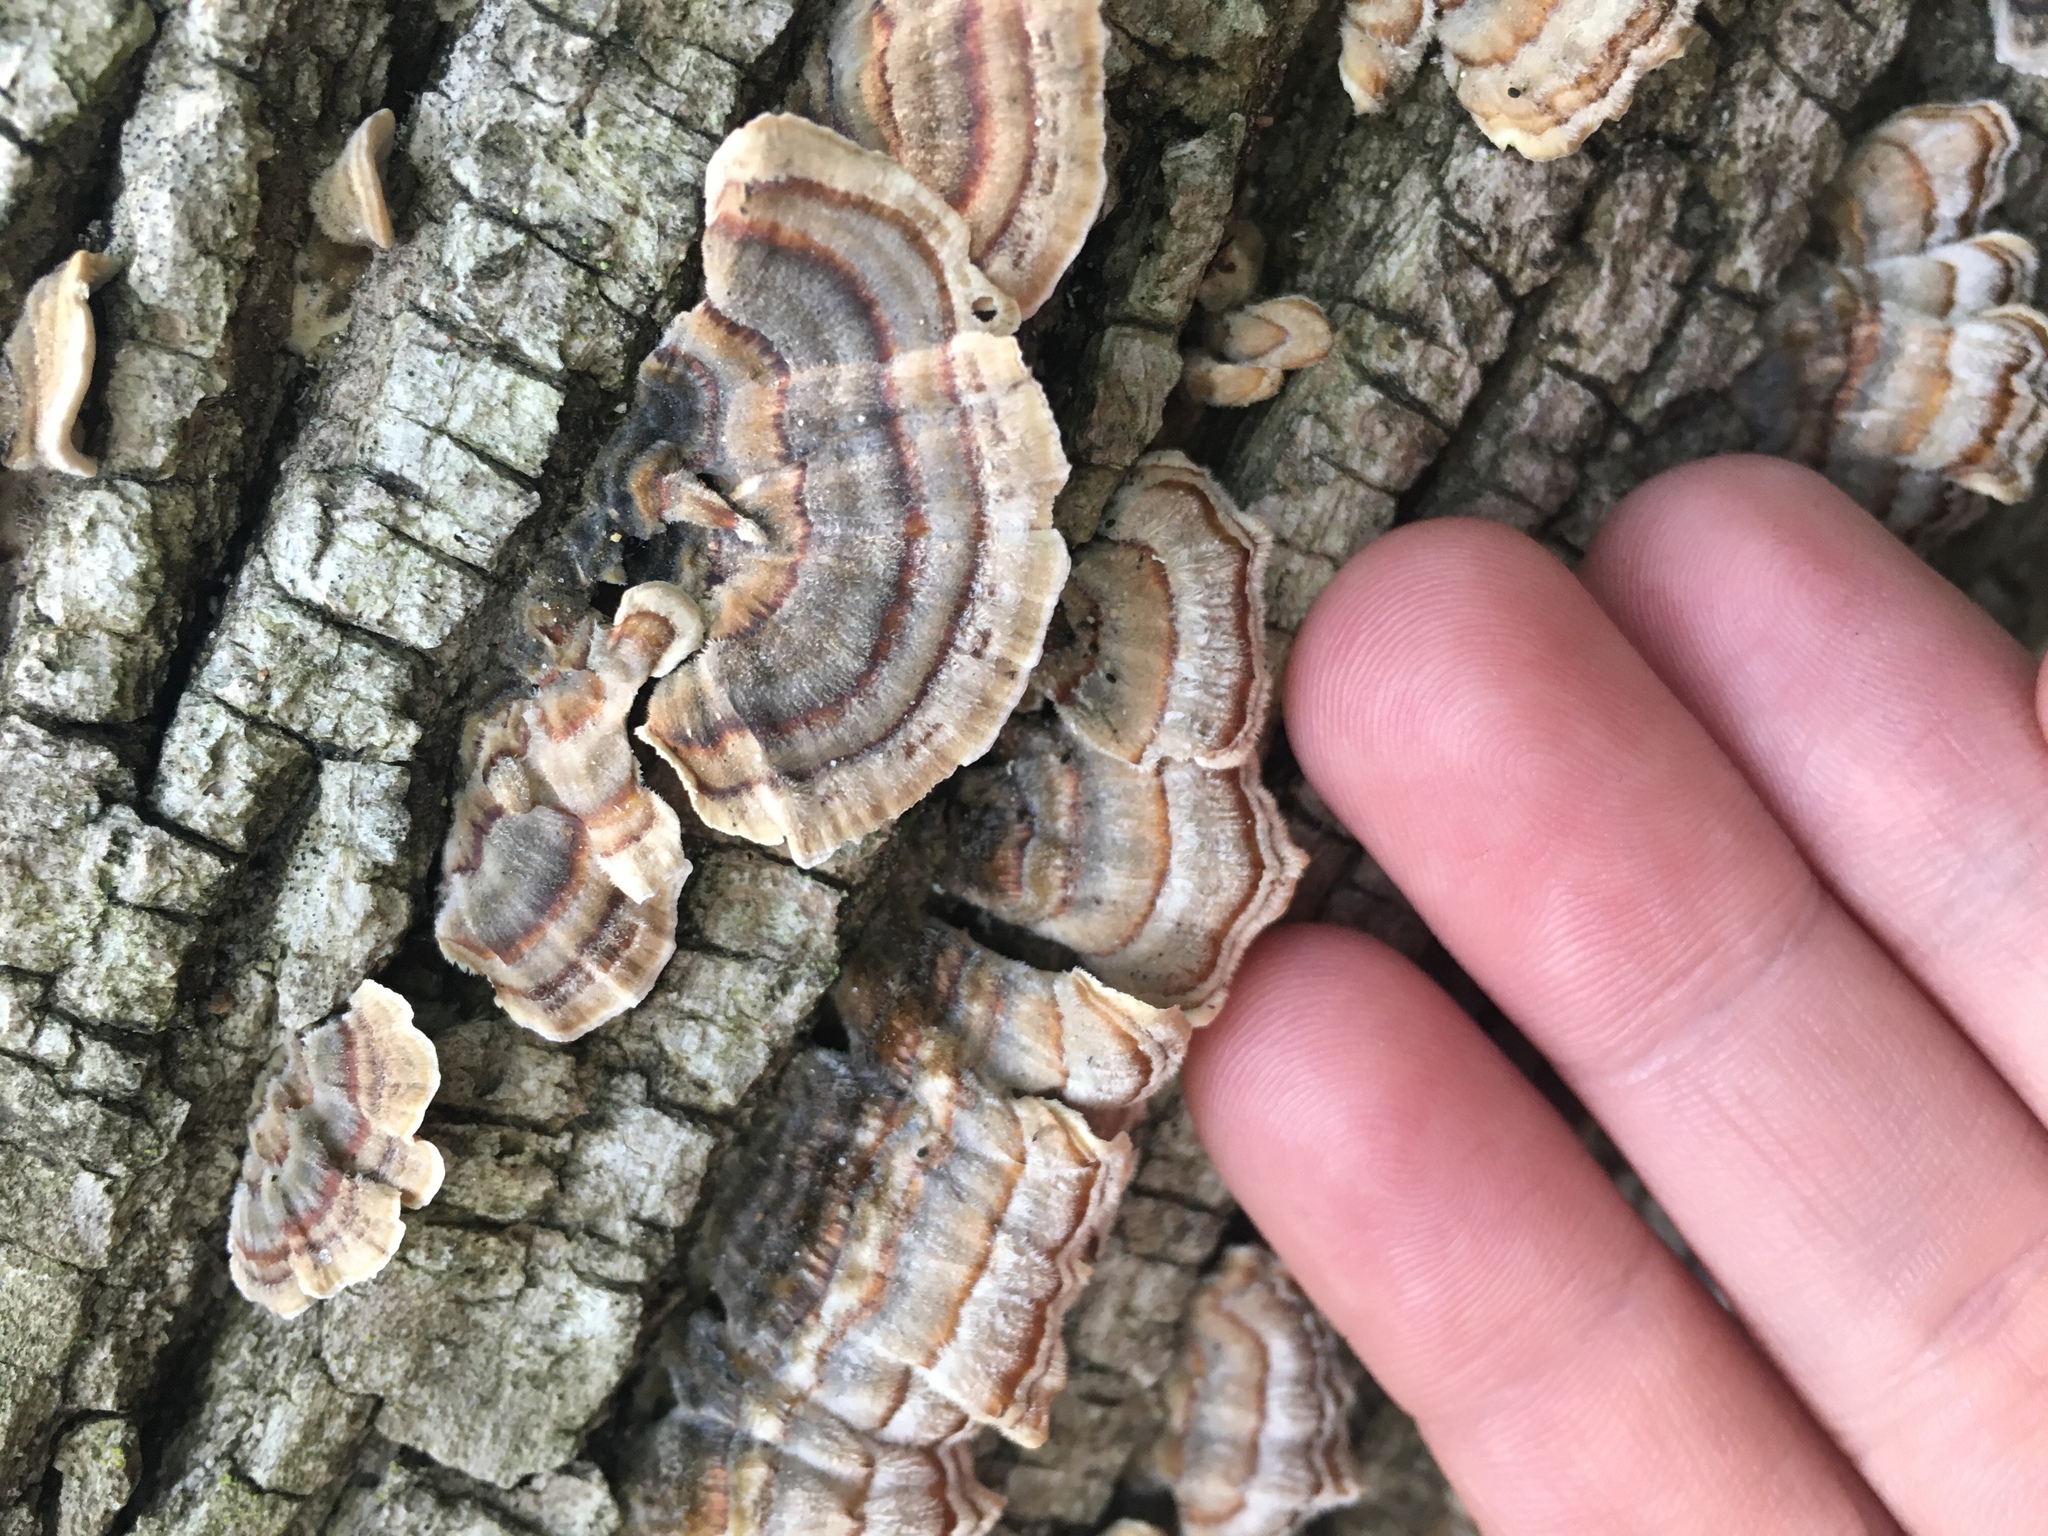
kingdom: Fungi
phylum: Basidiomycota
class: Agaricomycetes
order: Polyporales
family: Polyporaceae
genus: Trametes
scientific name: Trametes versicolor
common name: Turkeytail
